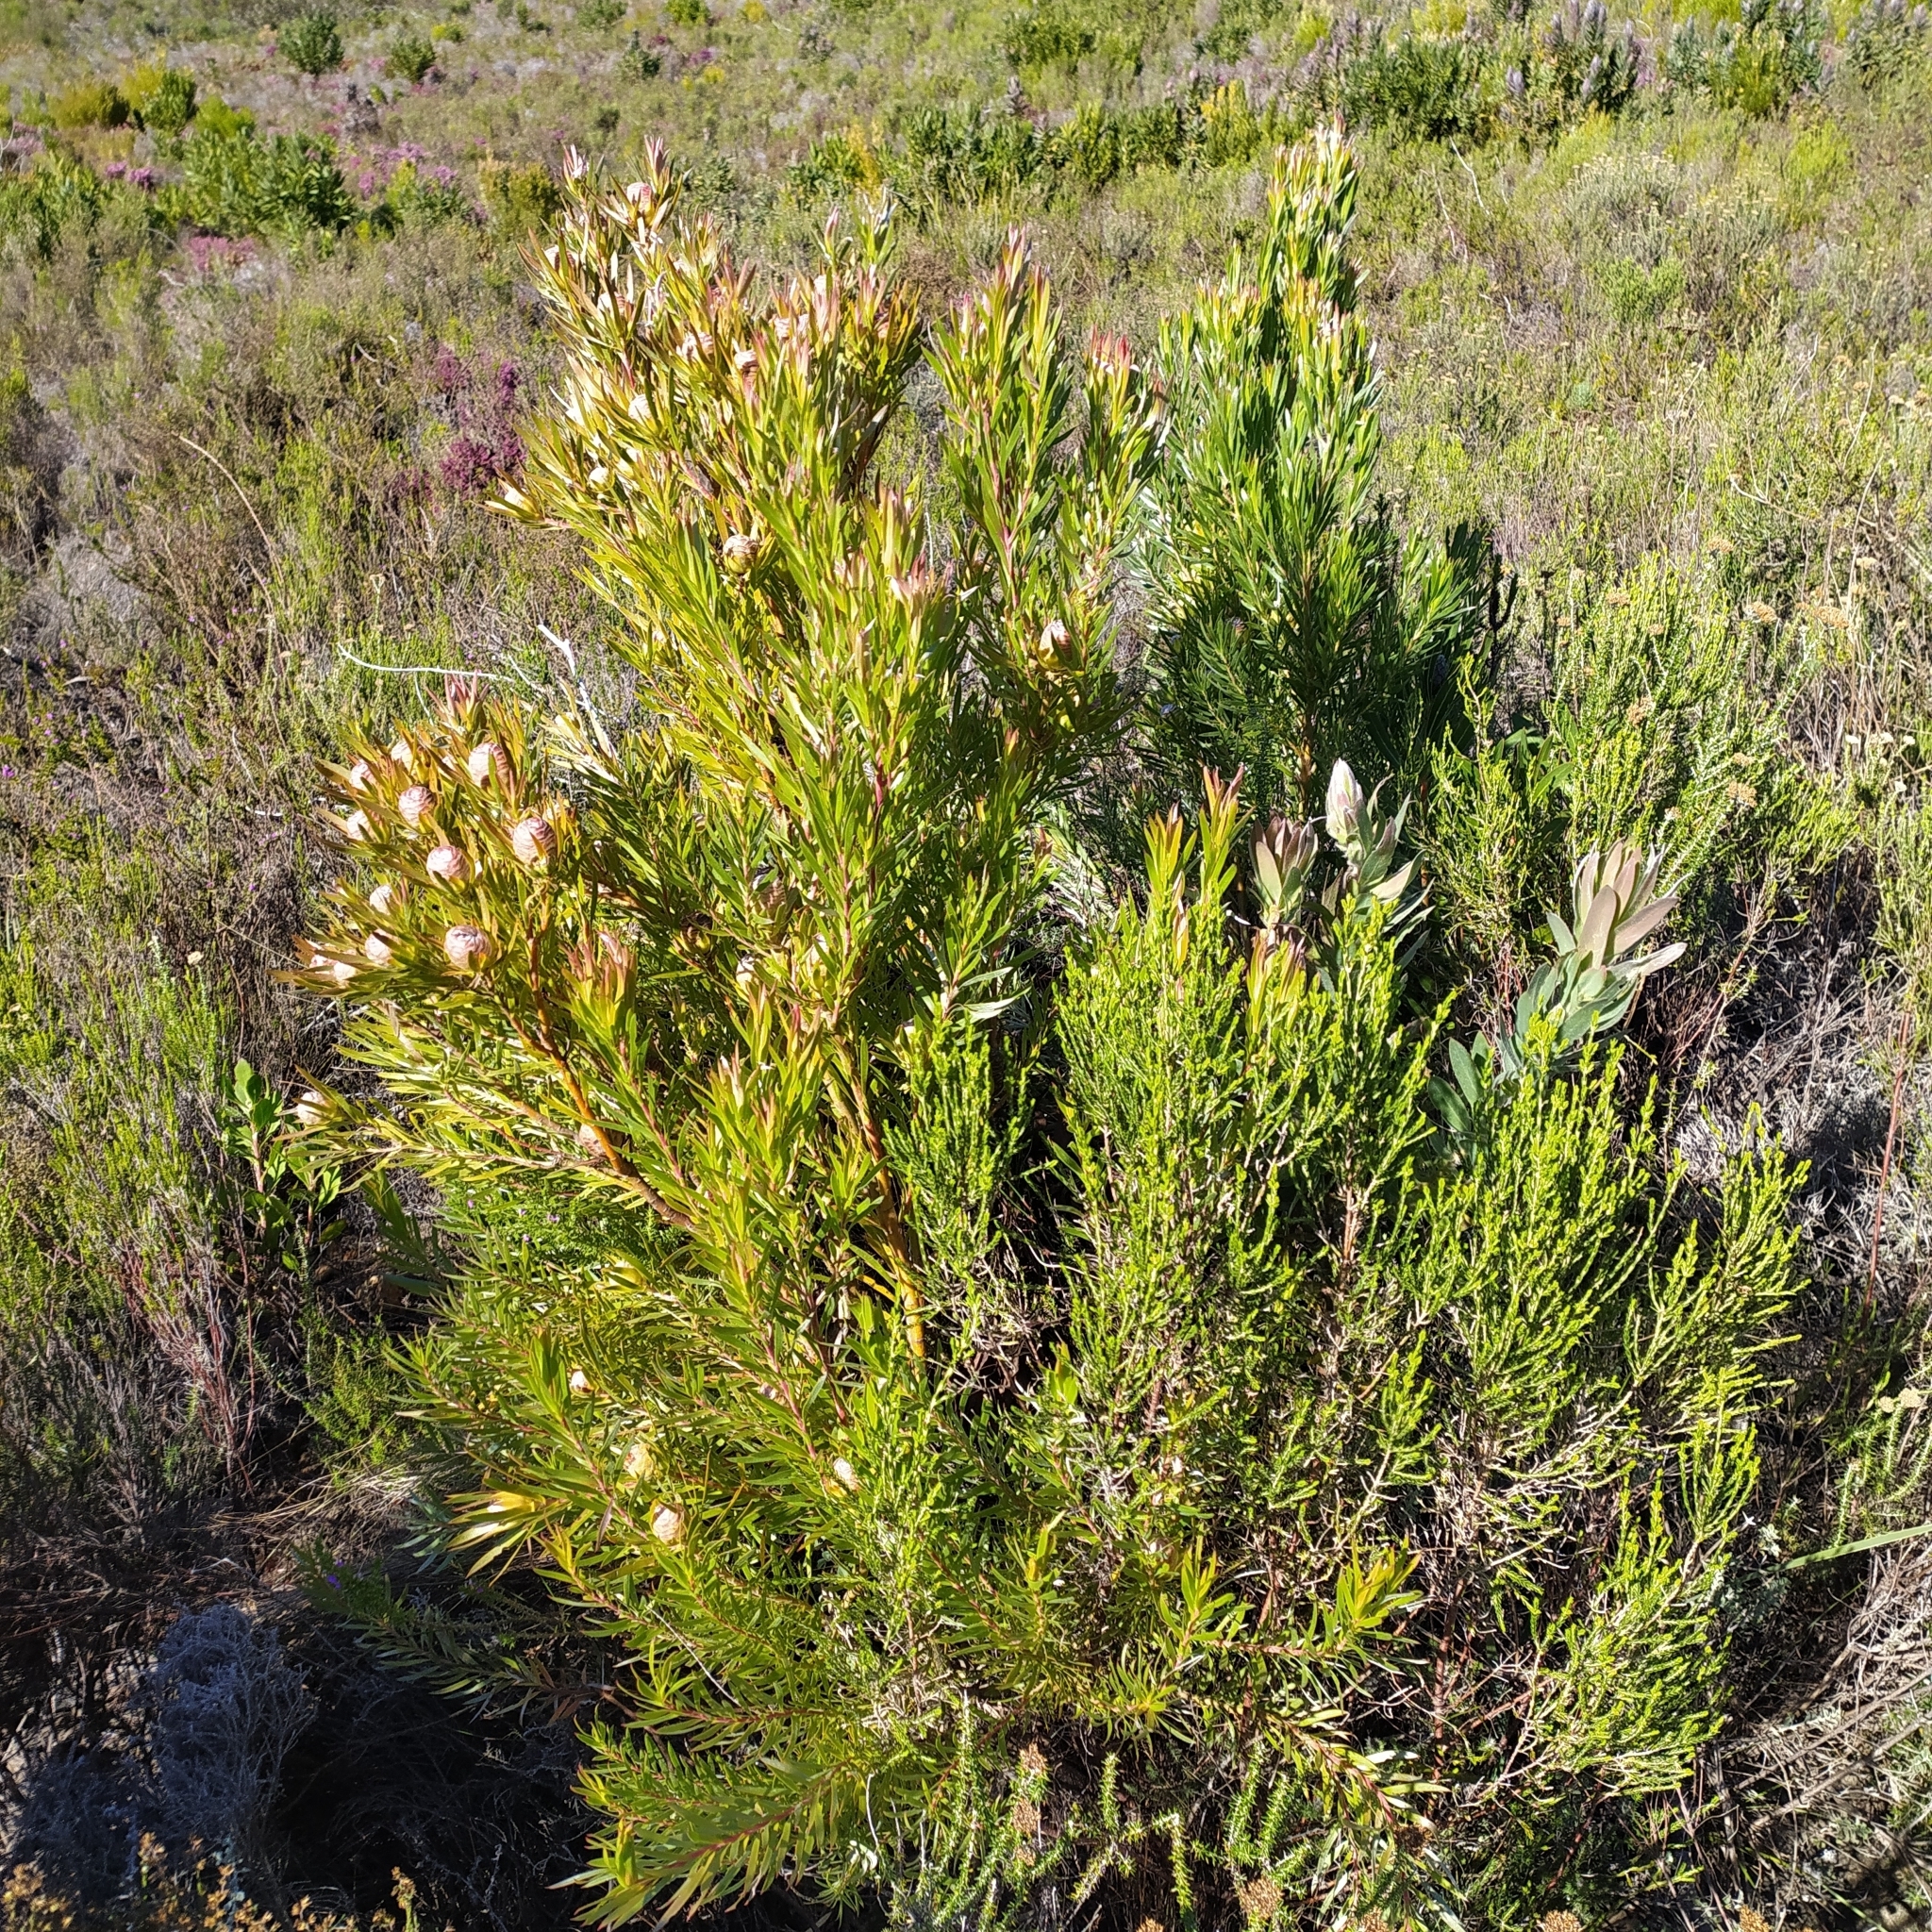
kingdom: Plantae
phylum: Tracheophyta
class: Magnoliopsida
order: Proteales
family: Proteaceae
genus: Leucadendron
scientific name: Leucadendron xanthoconus
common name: Sickle-leaf conebush
